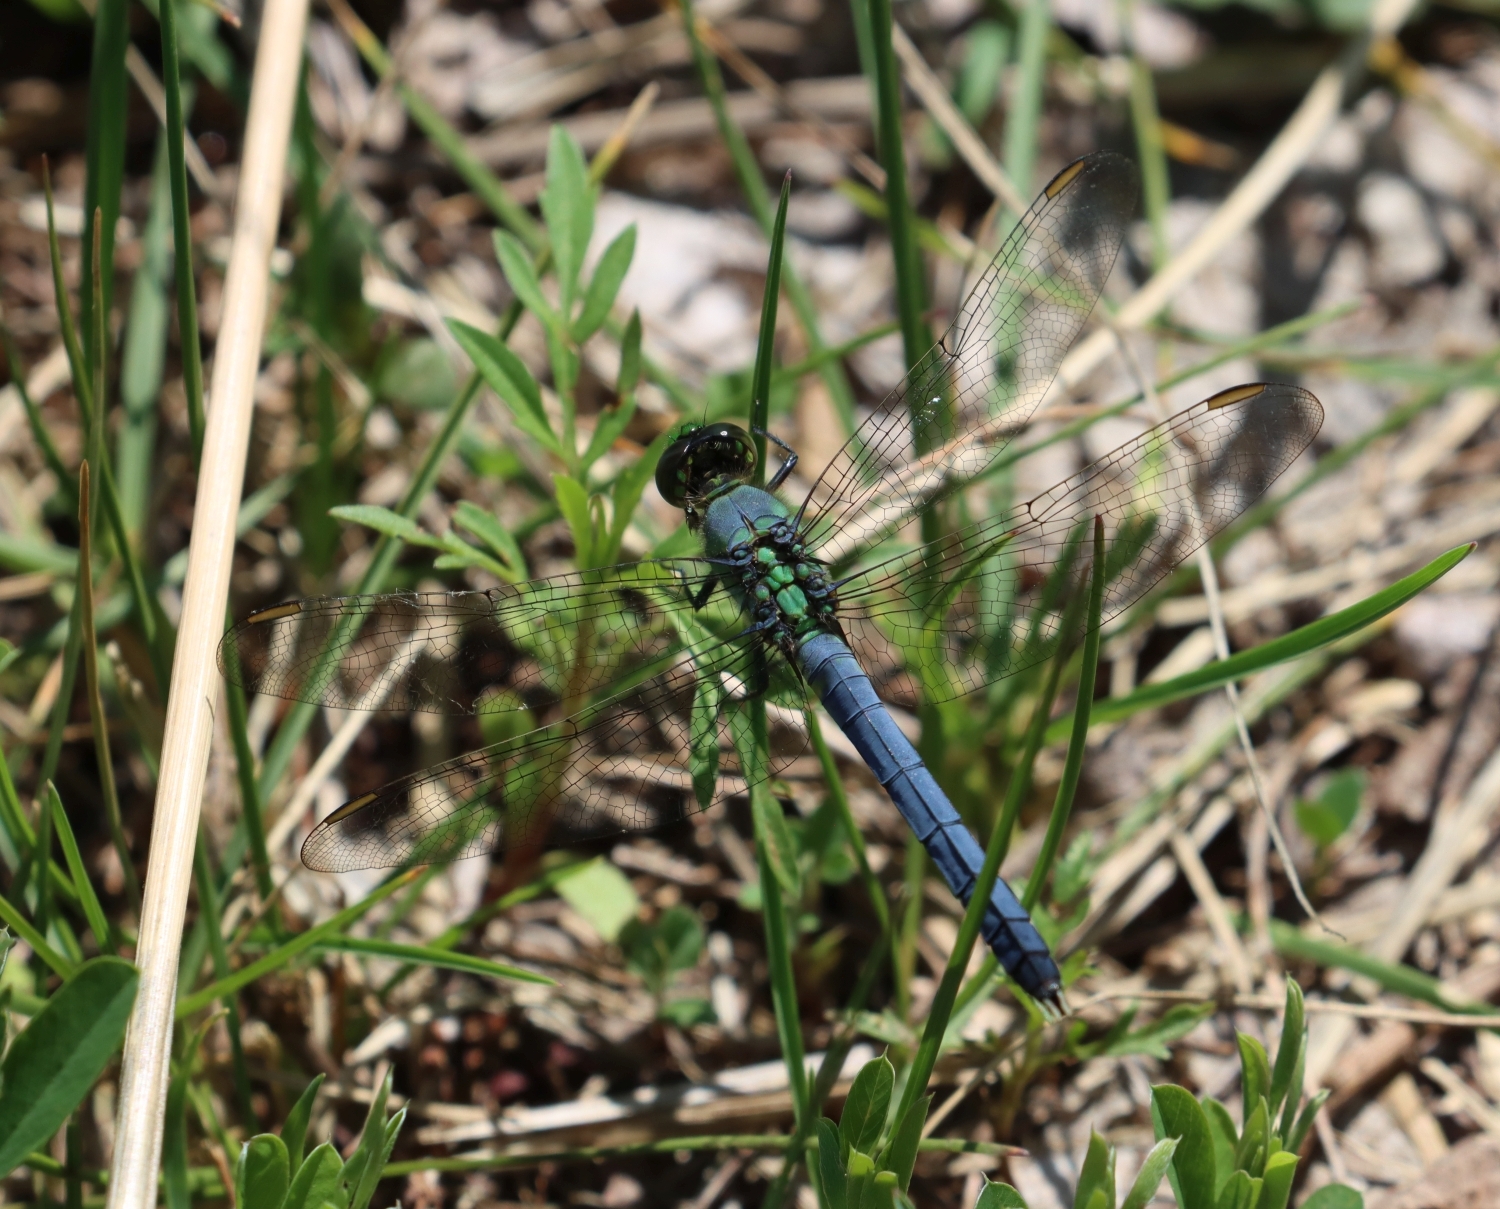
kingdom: Animalia
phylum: Arthropoda
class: Insecta
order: Odonata
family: Libellulidae
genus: Erythemis
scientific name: Erythemis simplicicollis
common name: Eastern pondhawk
